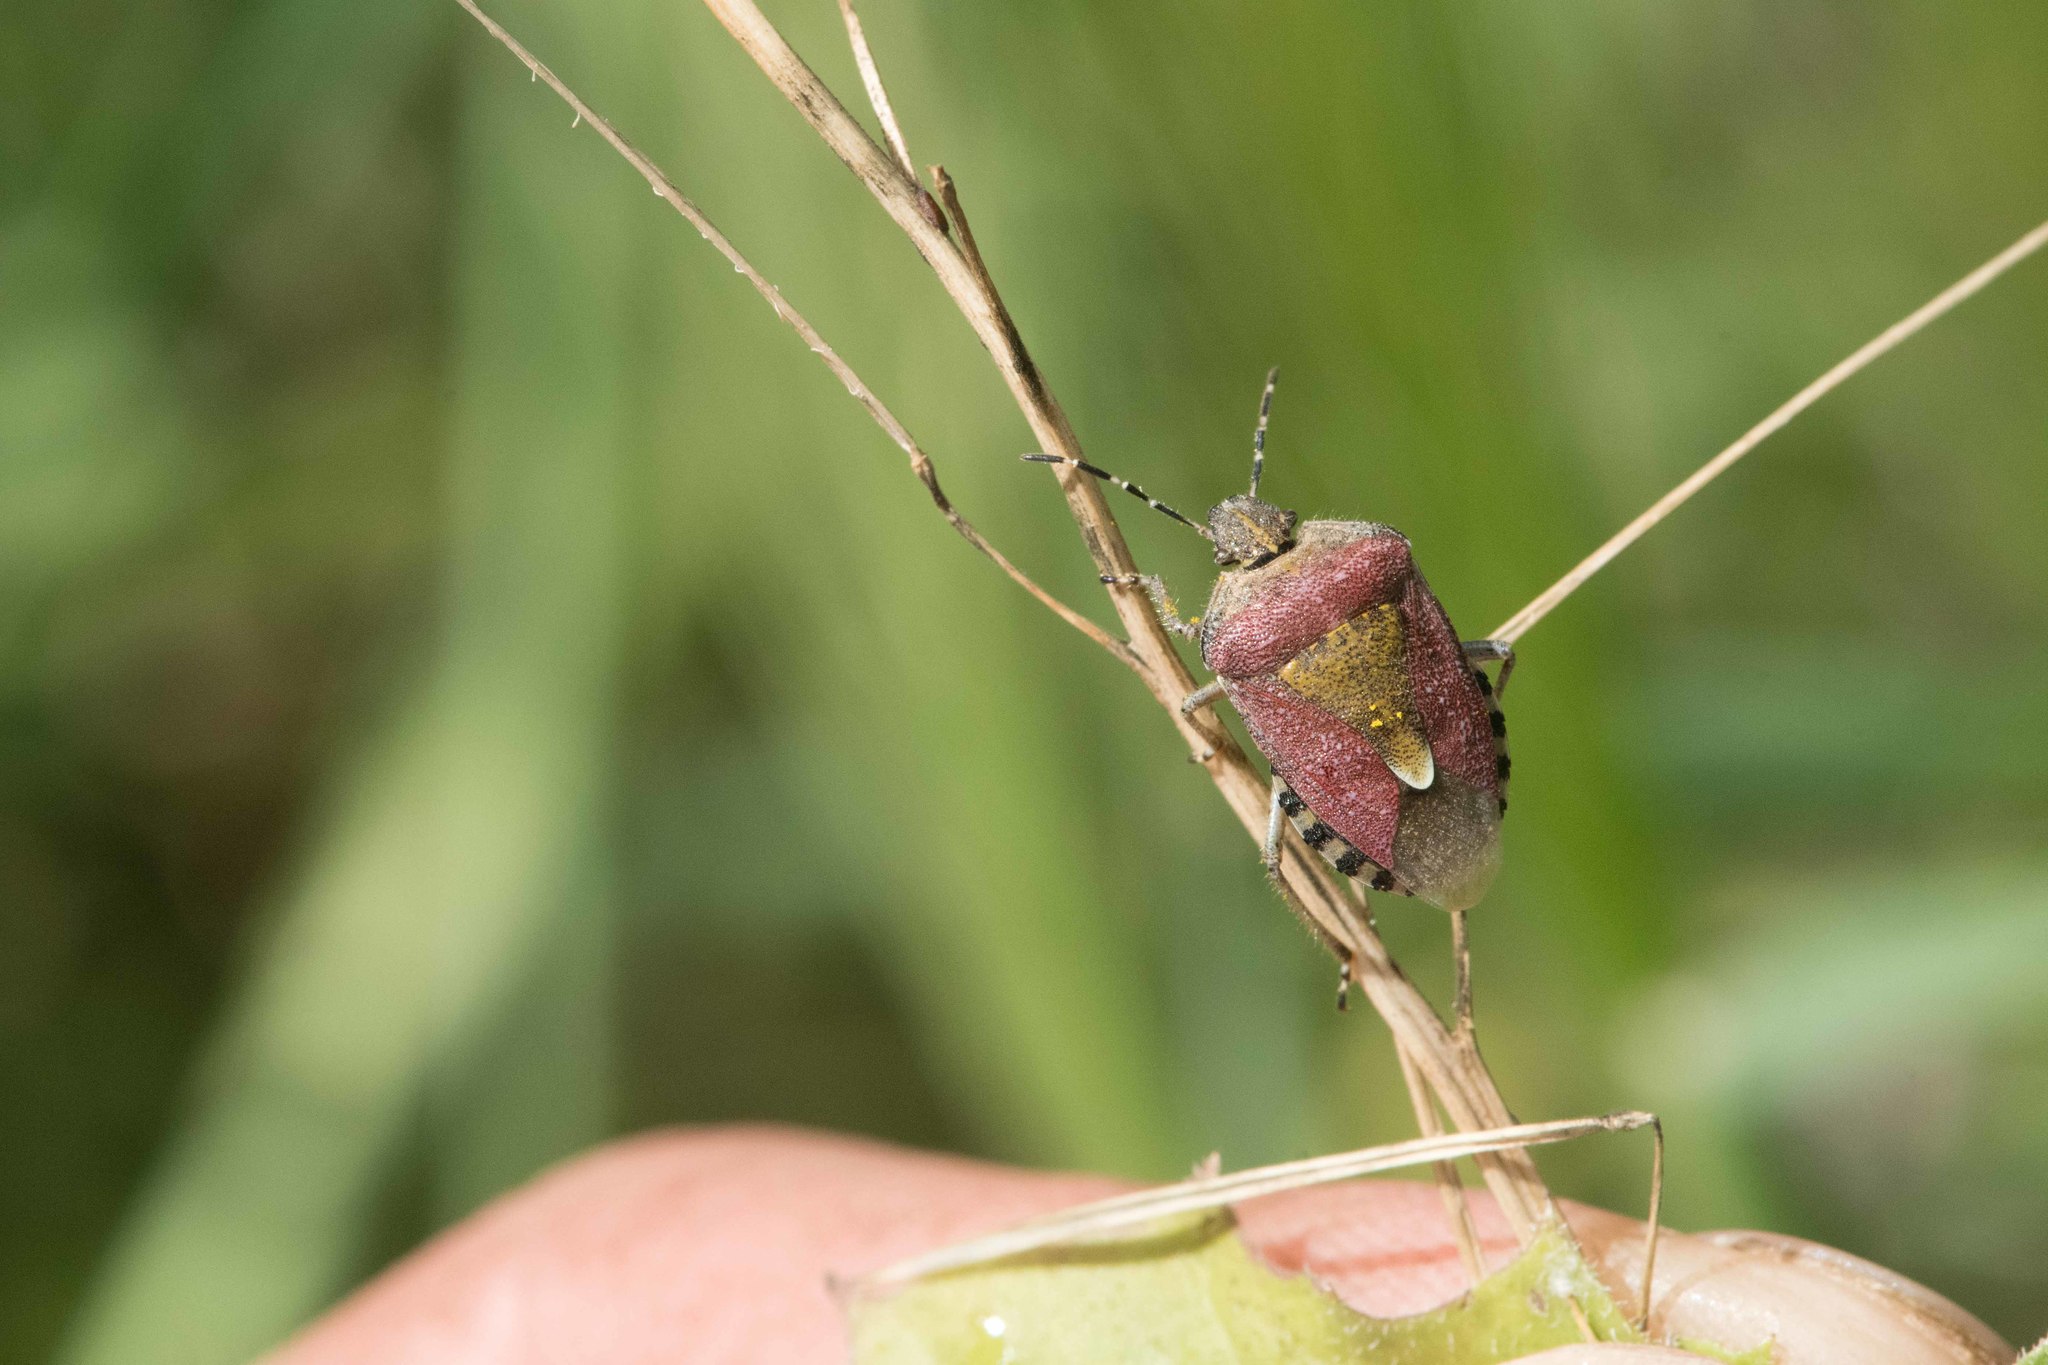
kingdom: Animalia
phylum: Arthropoda
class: Insecta
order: Hemiptera
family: Pentatomidae
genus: Dolycoris
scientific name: Dolycoris baccarum
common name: Sloe bug
